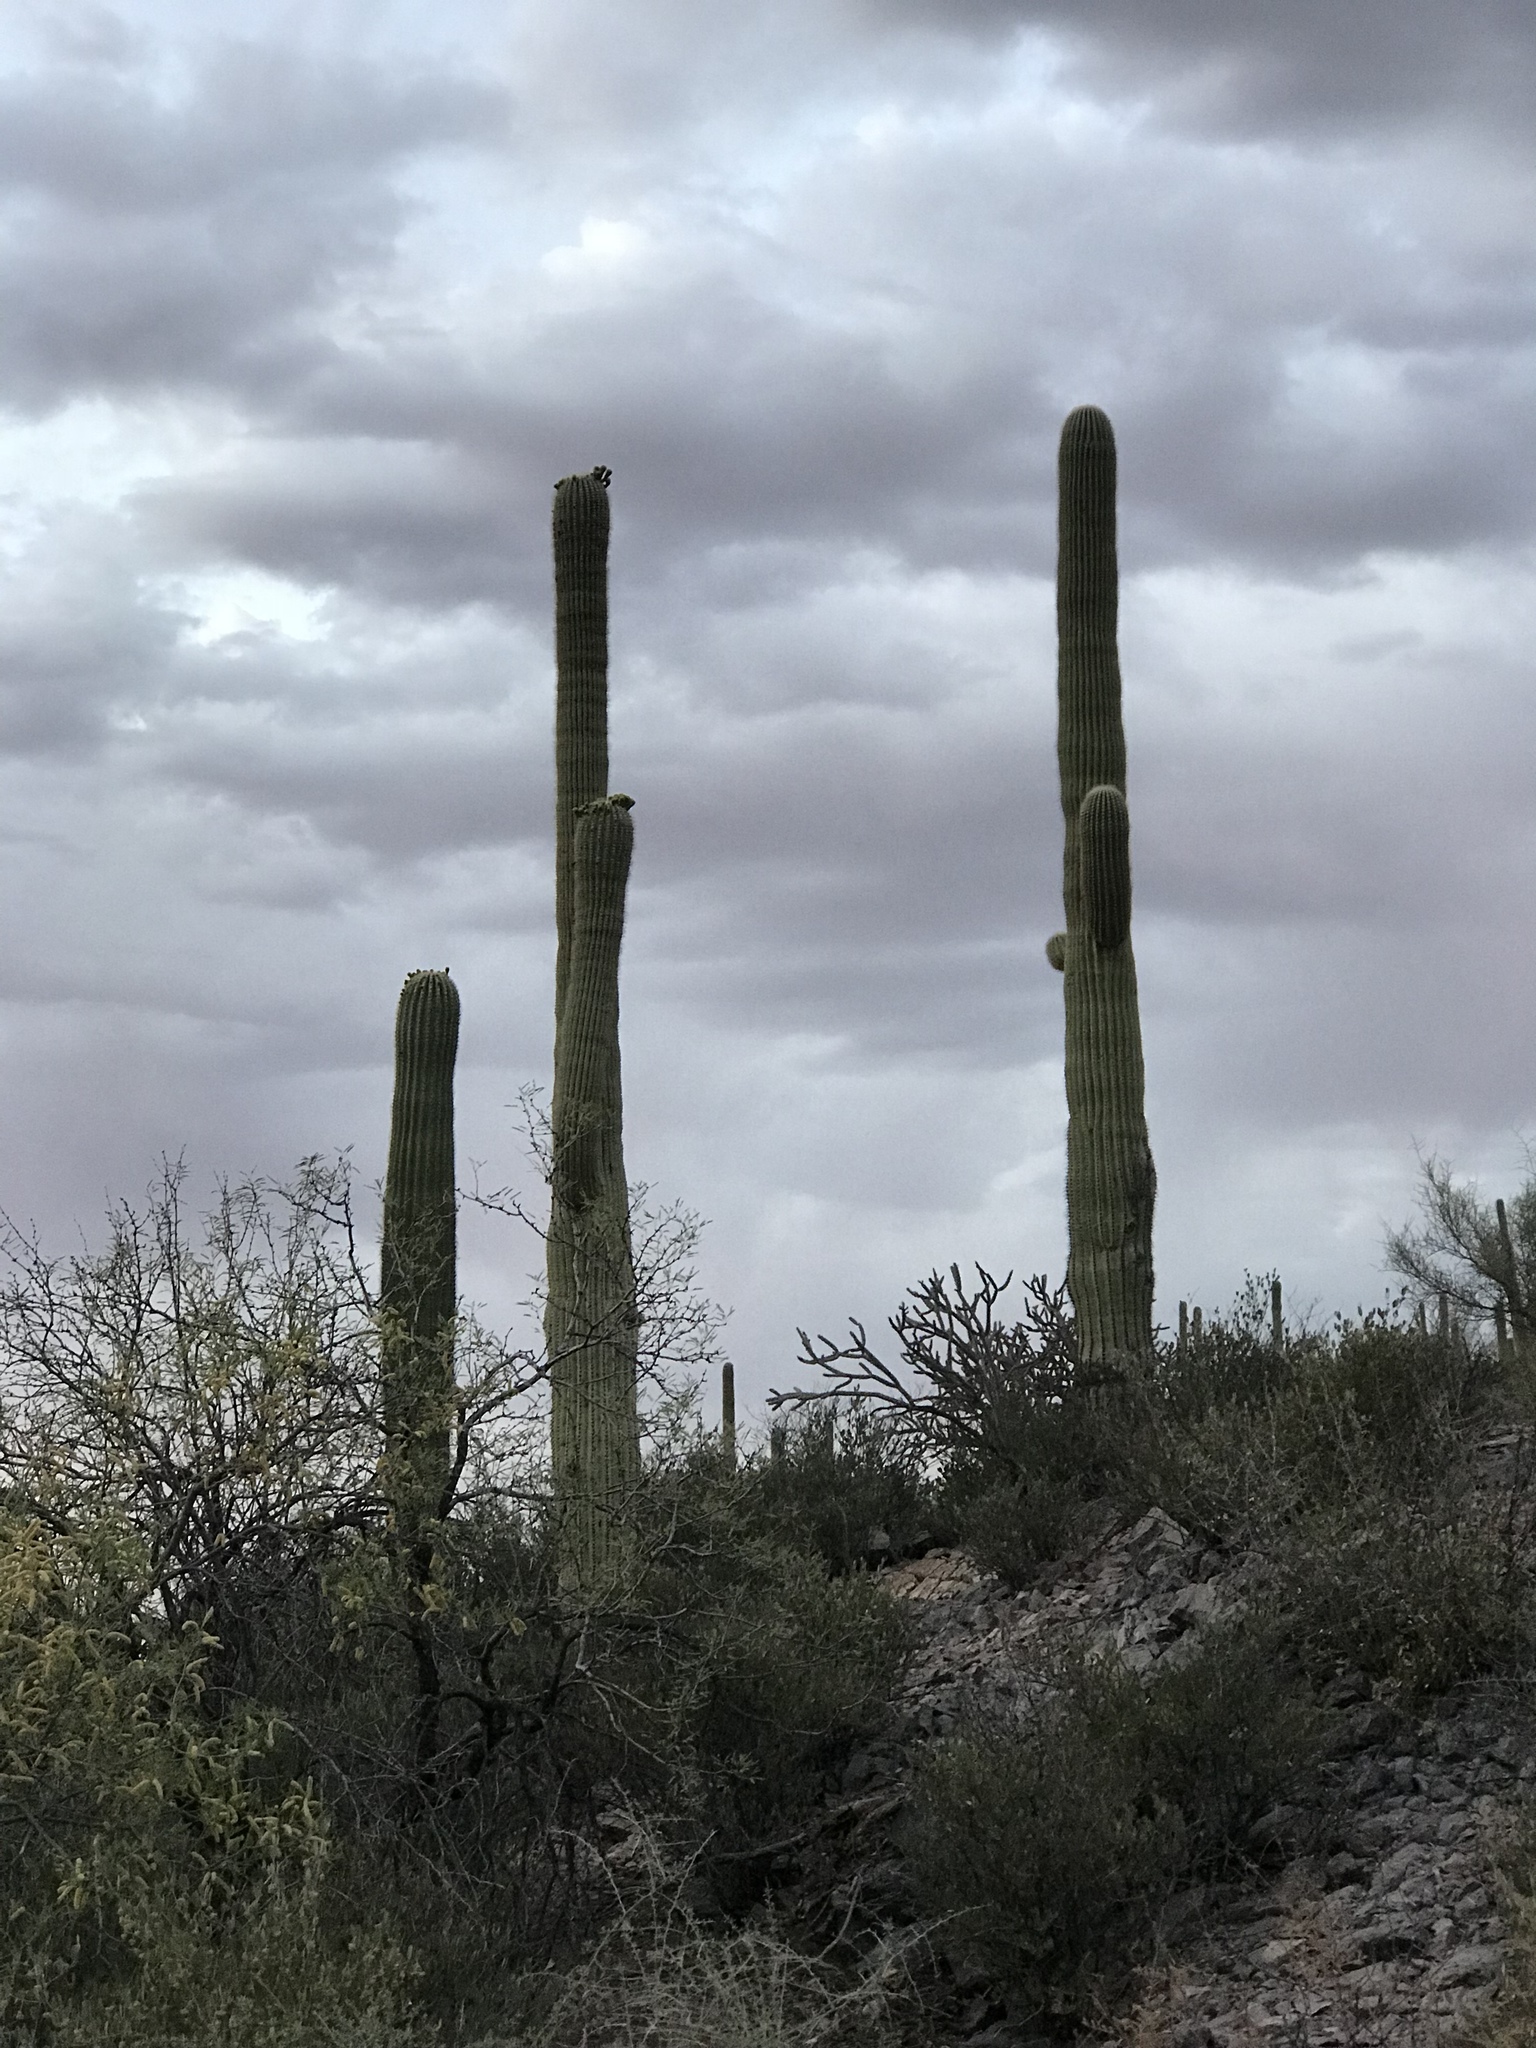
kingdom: Plantae
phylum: Tracheophyta
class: Magnoliopsida
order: Caryophyllales
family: Cactaceae
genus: Carnegiea
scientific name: Carnegiea gigantea
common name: Saguaro
